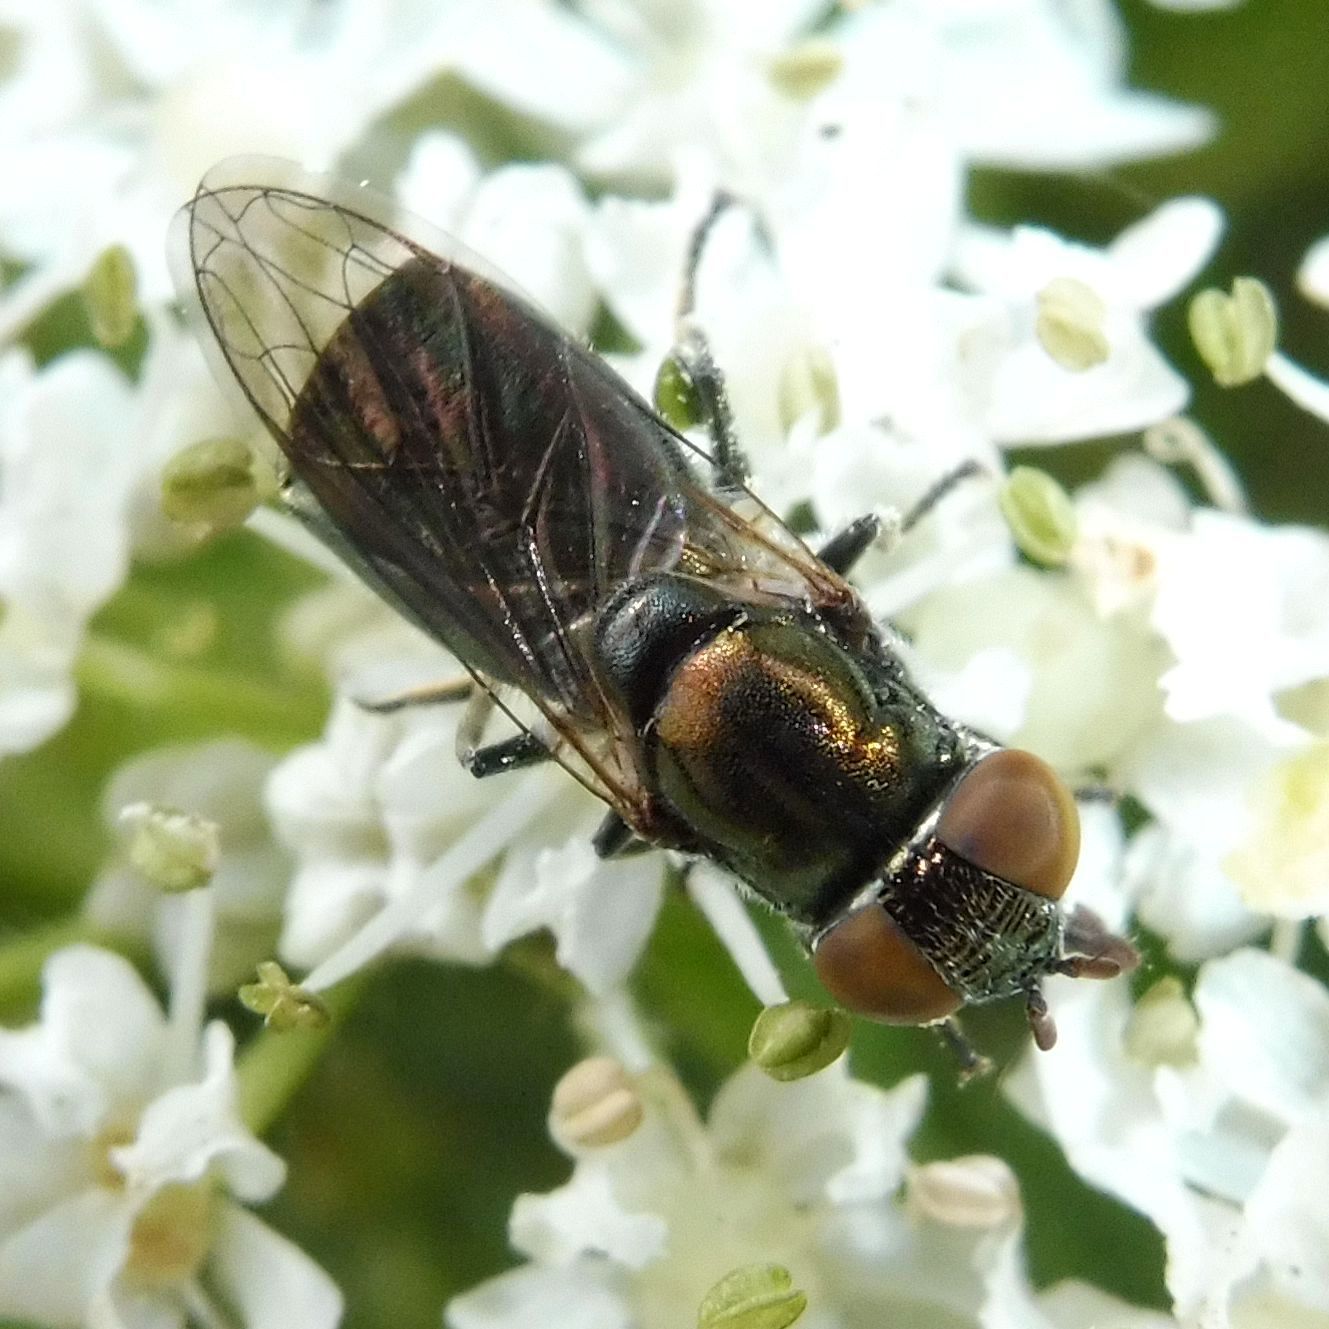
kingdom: Animalia
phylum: Arthropoda
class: Insecta
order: Diptera
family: Syrphidae
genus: Orthonevra
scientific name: Orthonevra splendens
